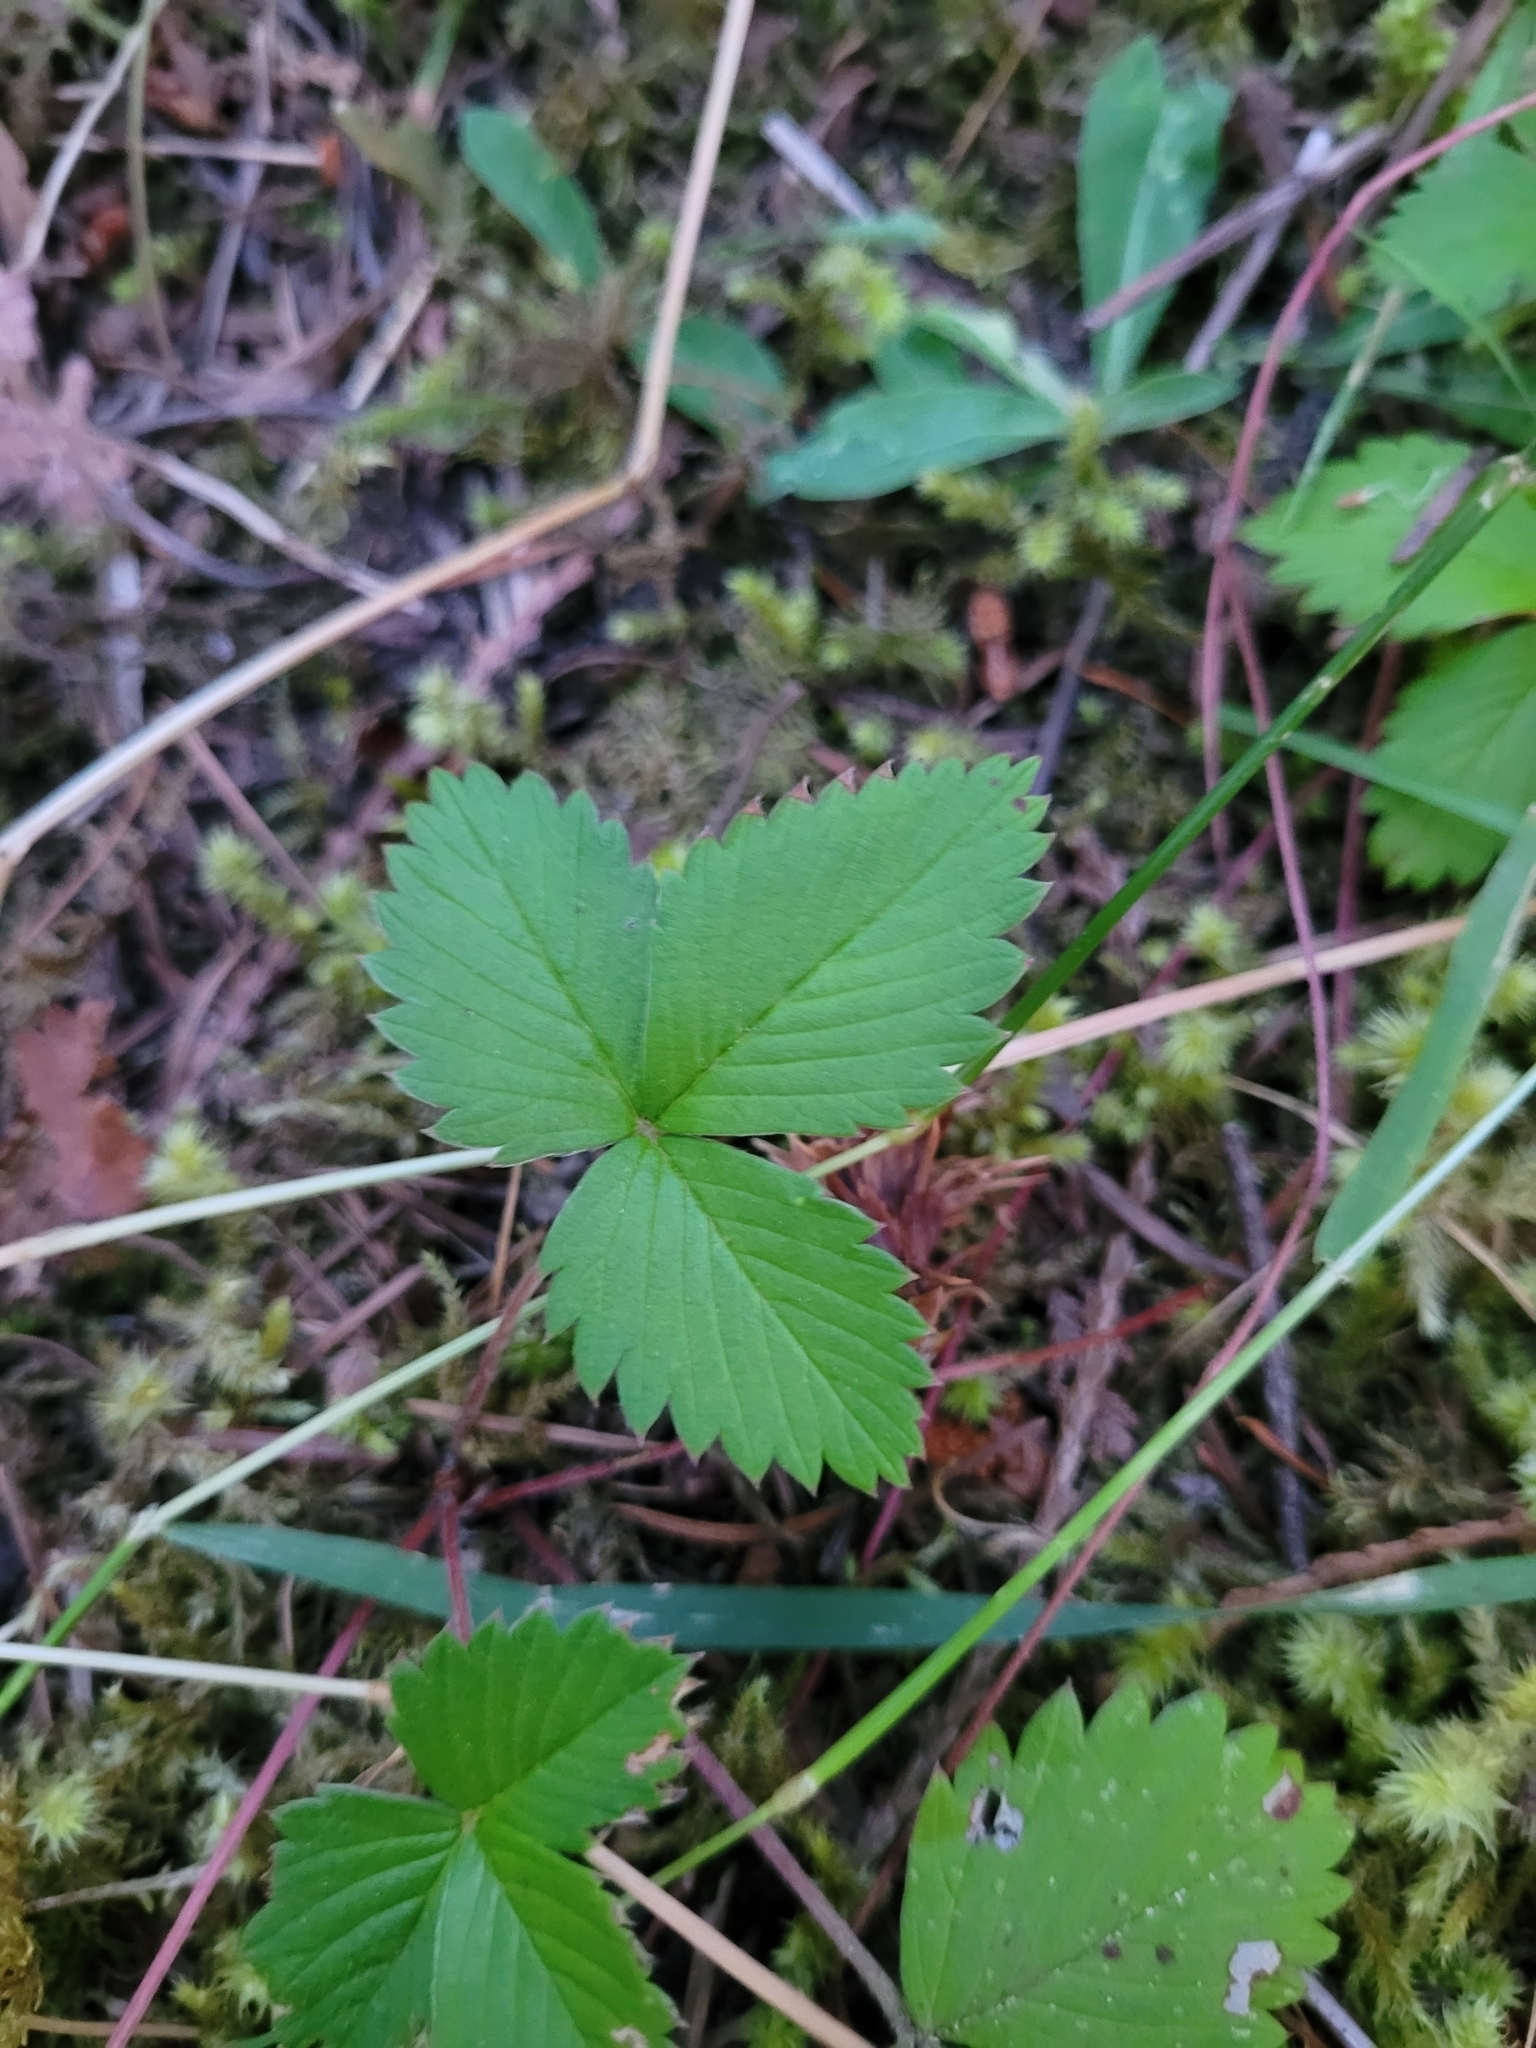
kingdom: Plantae
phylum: Tracheophyta
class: Magnoliopsida
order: Rosales
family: Rosaceae
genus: Fragaria
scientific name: Fragaria vesca
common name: Wild strawberry
